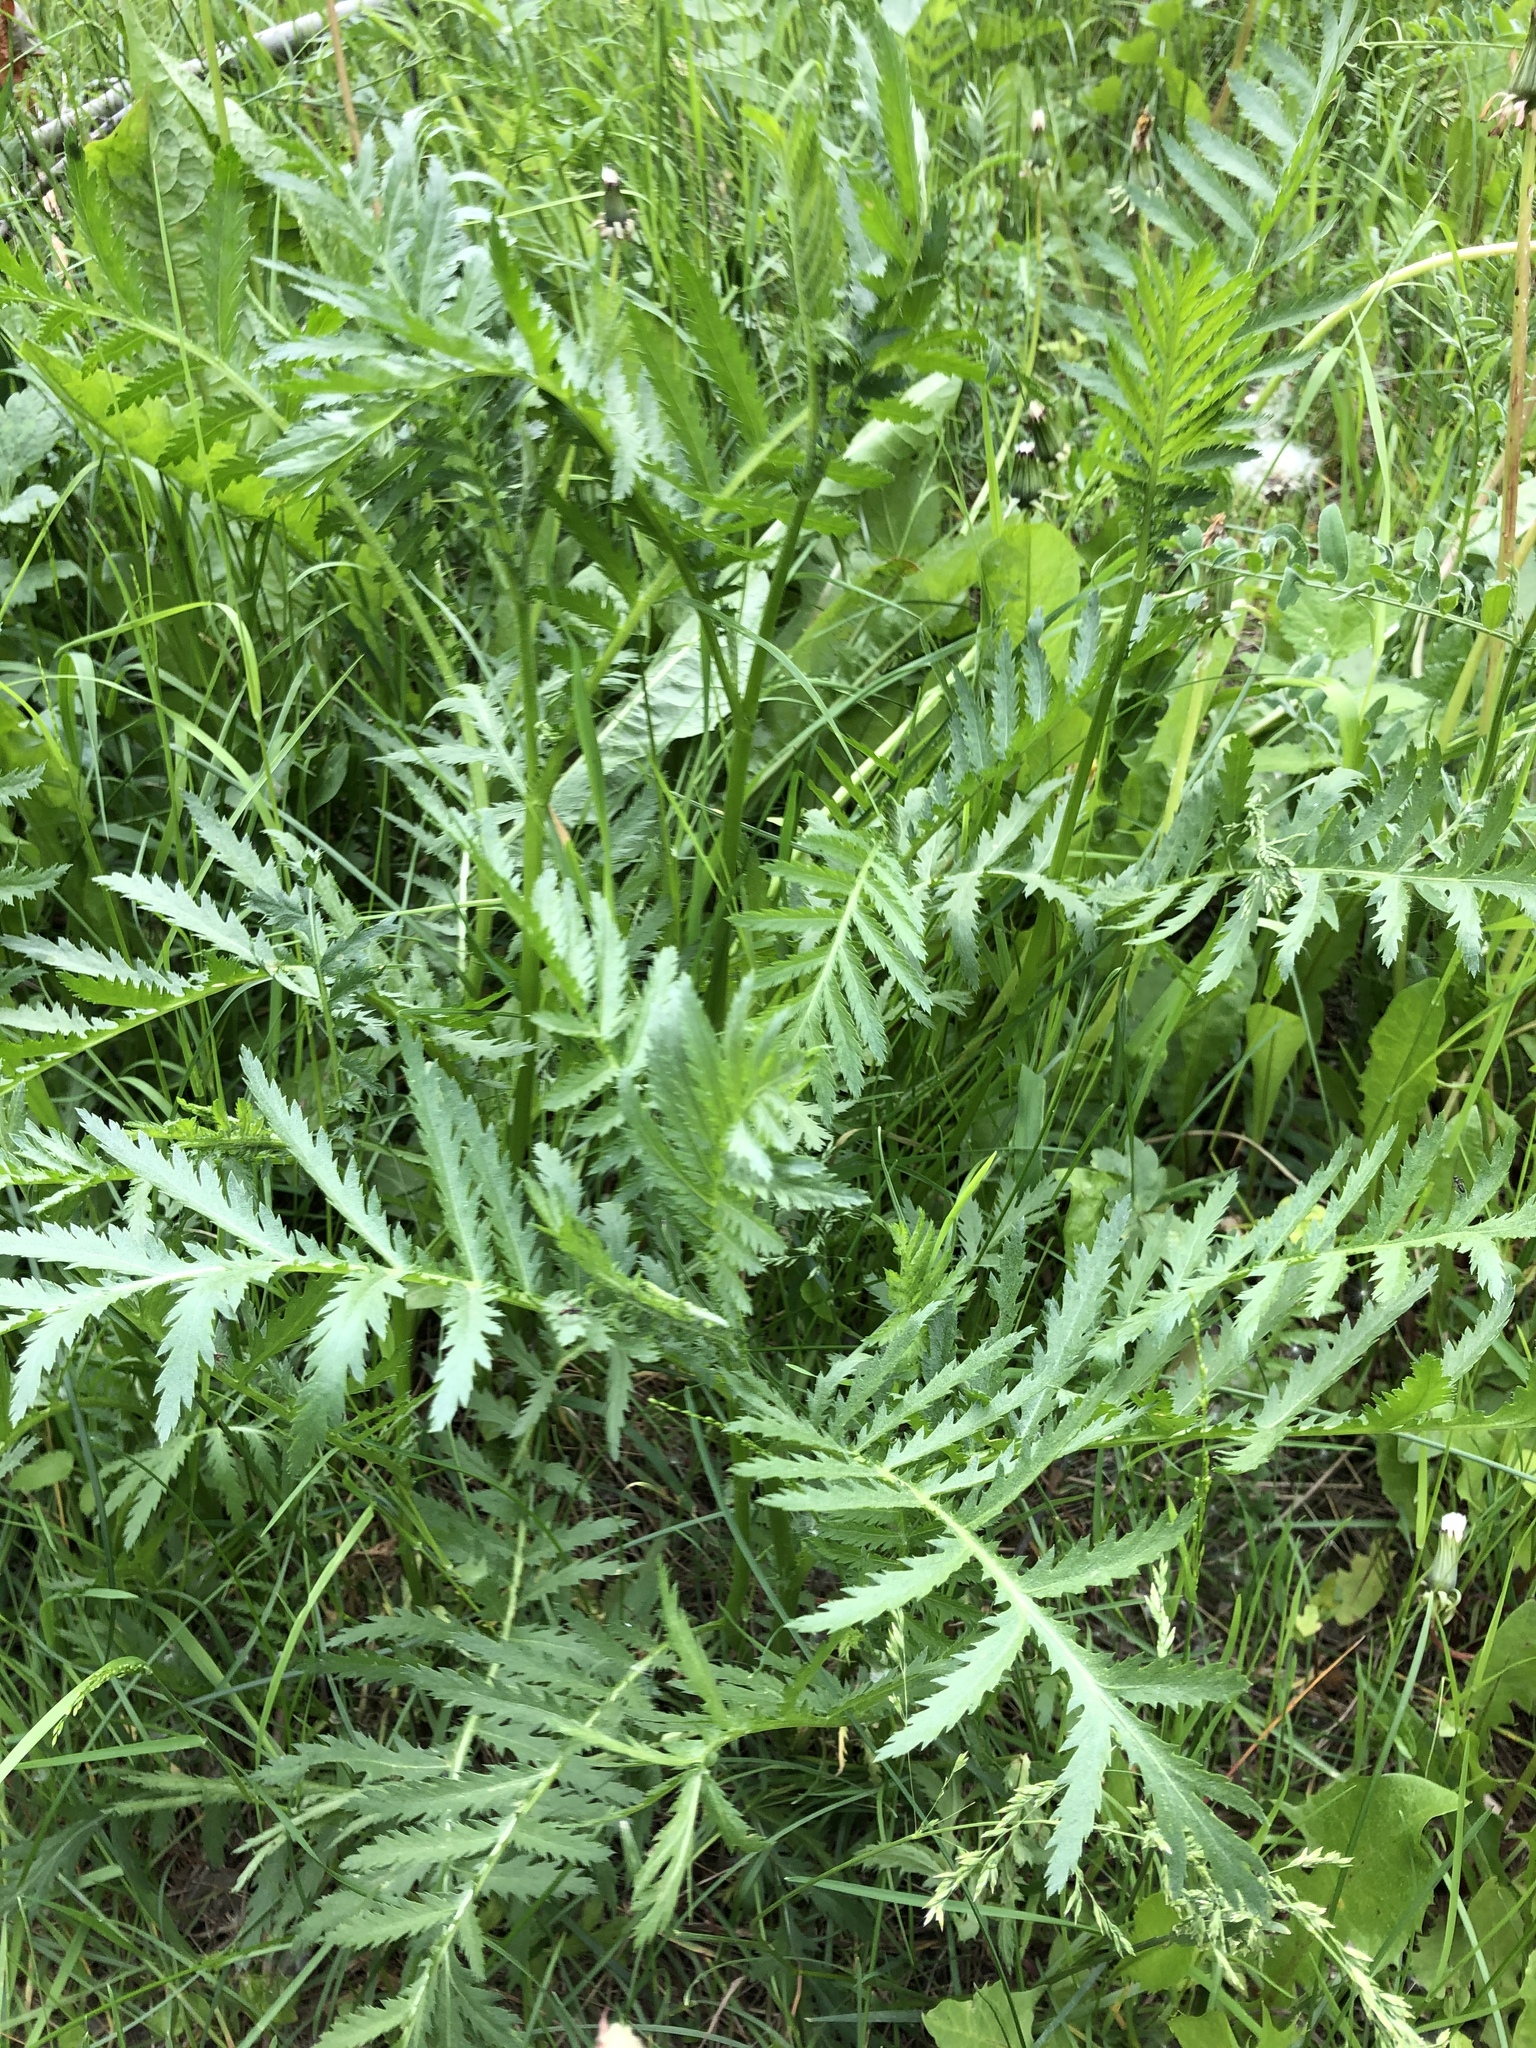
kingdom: Plantae
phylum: Tracheophyta
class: Magnoliopsida
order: Asterales
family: Asteraceae
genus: Tanacetum
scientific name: Tanacetum vulgare
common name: Common tansy
